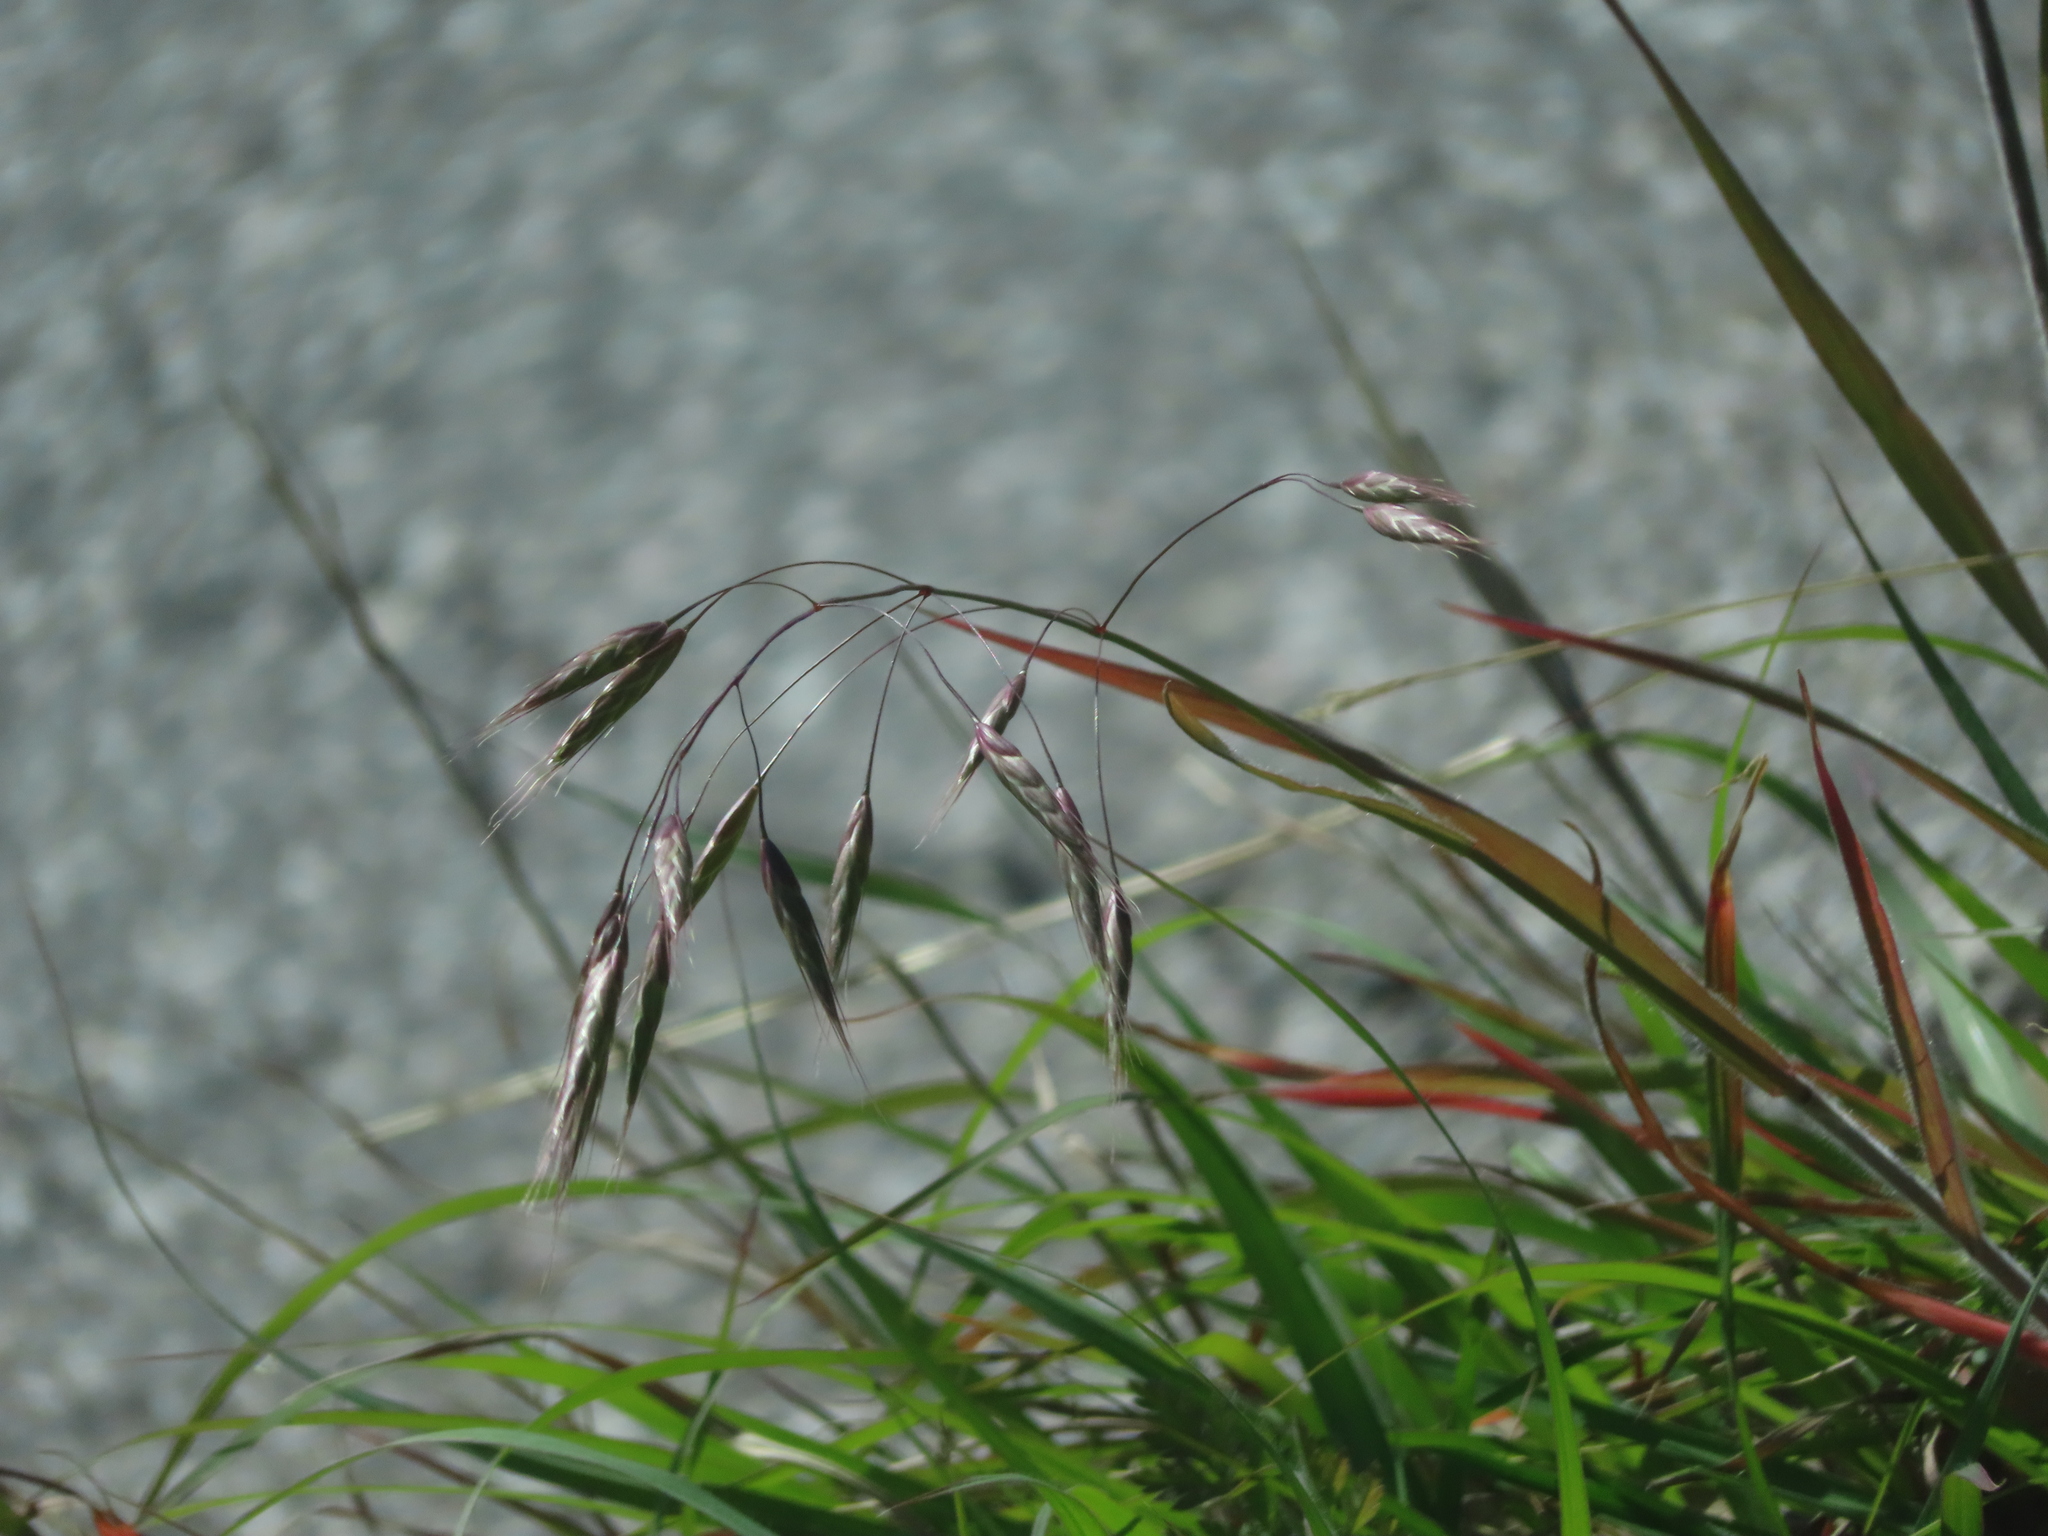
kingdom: Plantae
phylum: Tracheophyta
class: Liliopsida
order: Poales
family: Poaceae
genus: Bromus
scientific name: Bromus japonicus
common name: Japanese brome
